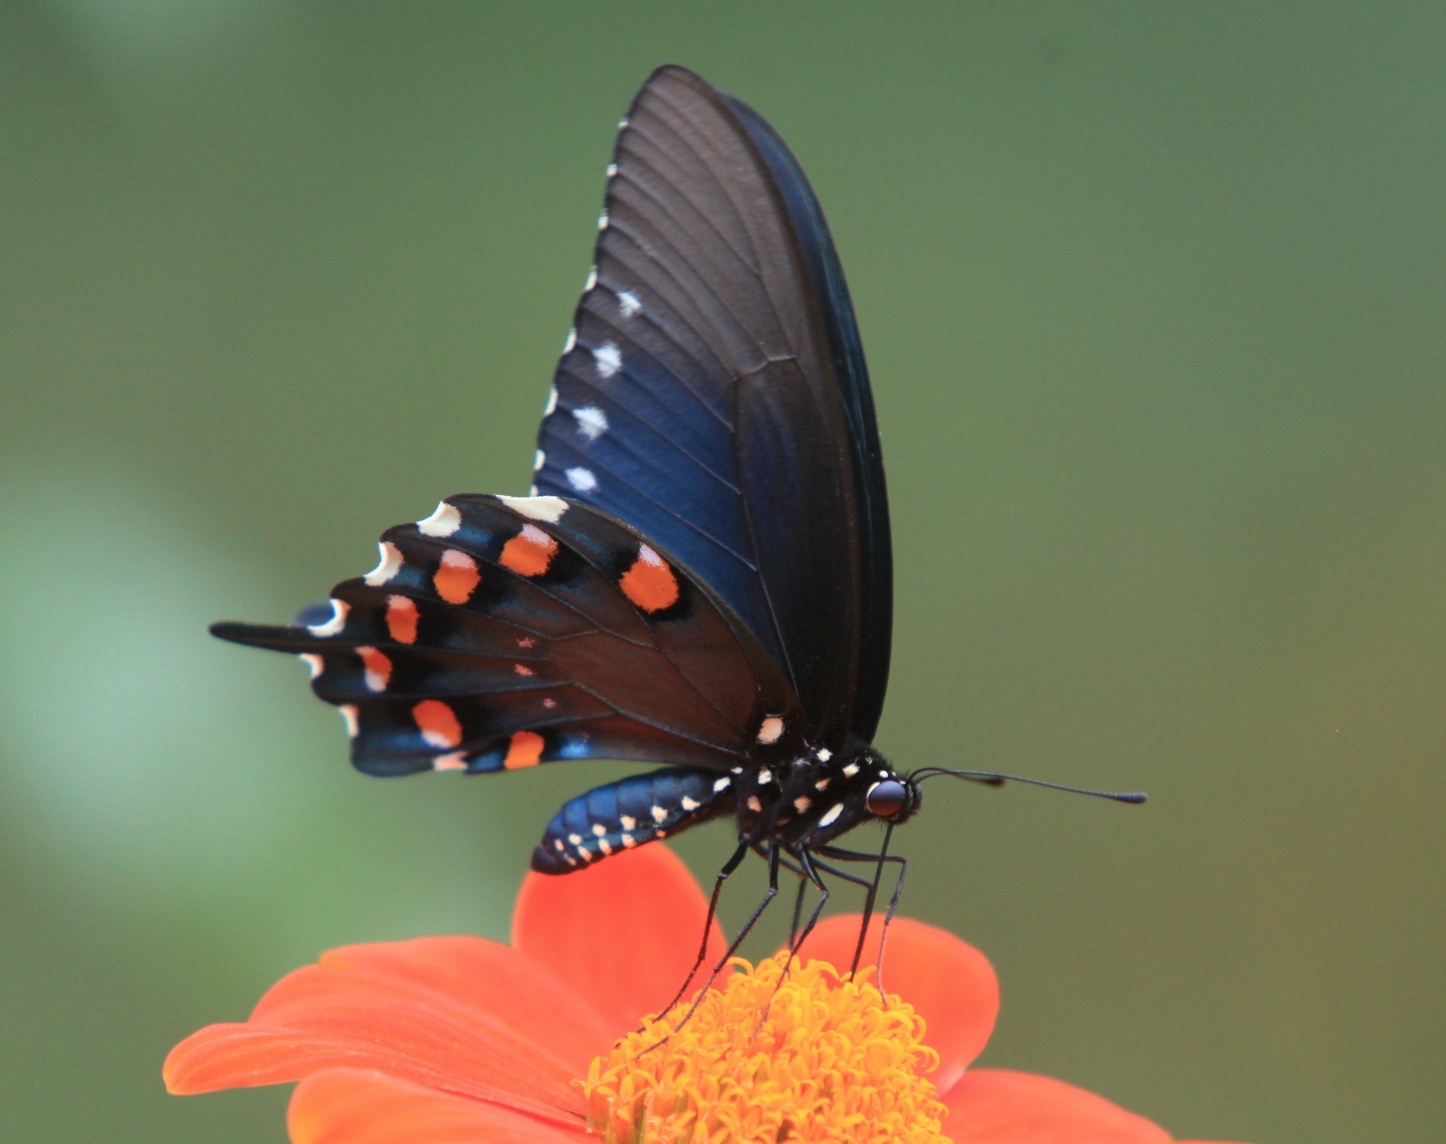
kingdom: Animalia
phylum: Arthropoda
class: Insecta
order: Lepidoptera
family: Papilionidae
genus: Battus
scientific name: Battus philenor
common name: Pipevine swallowtail
